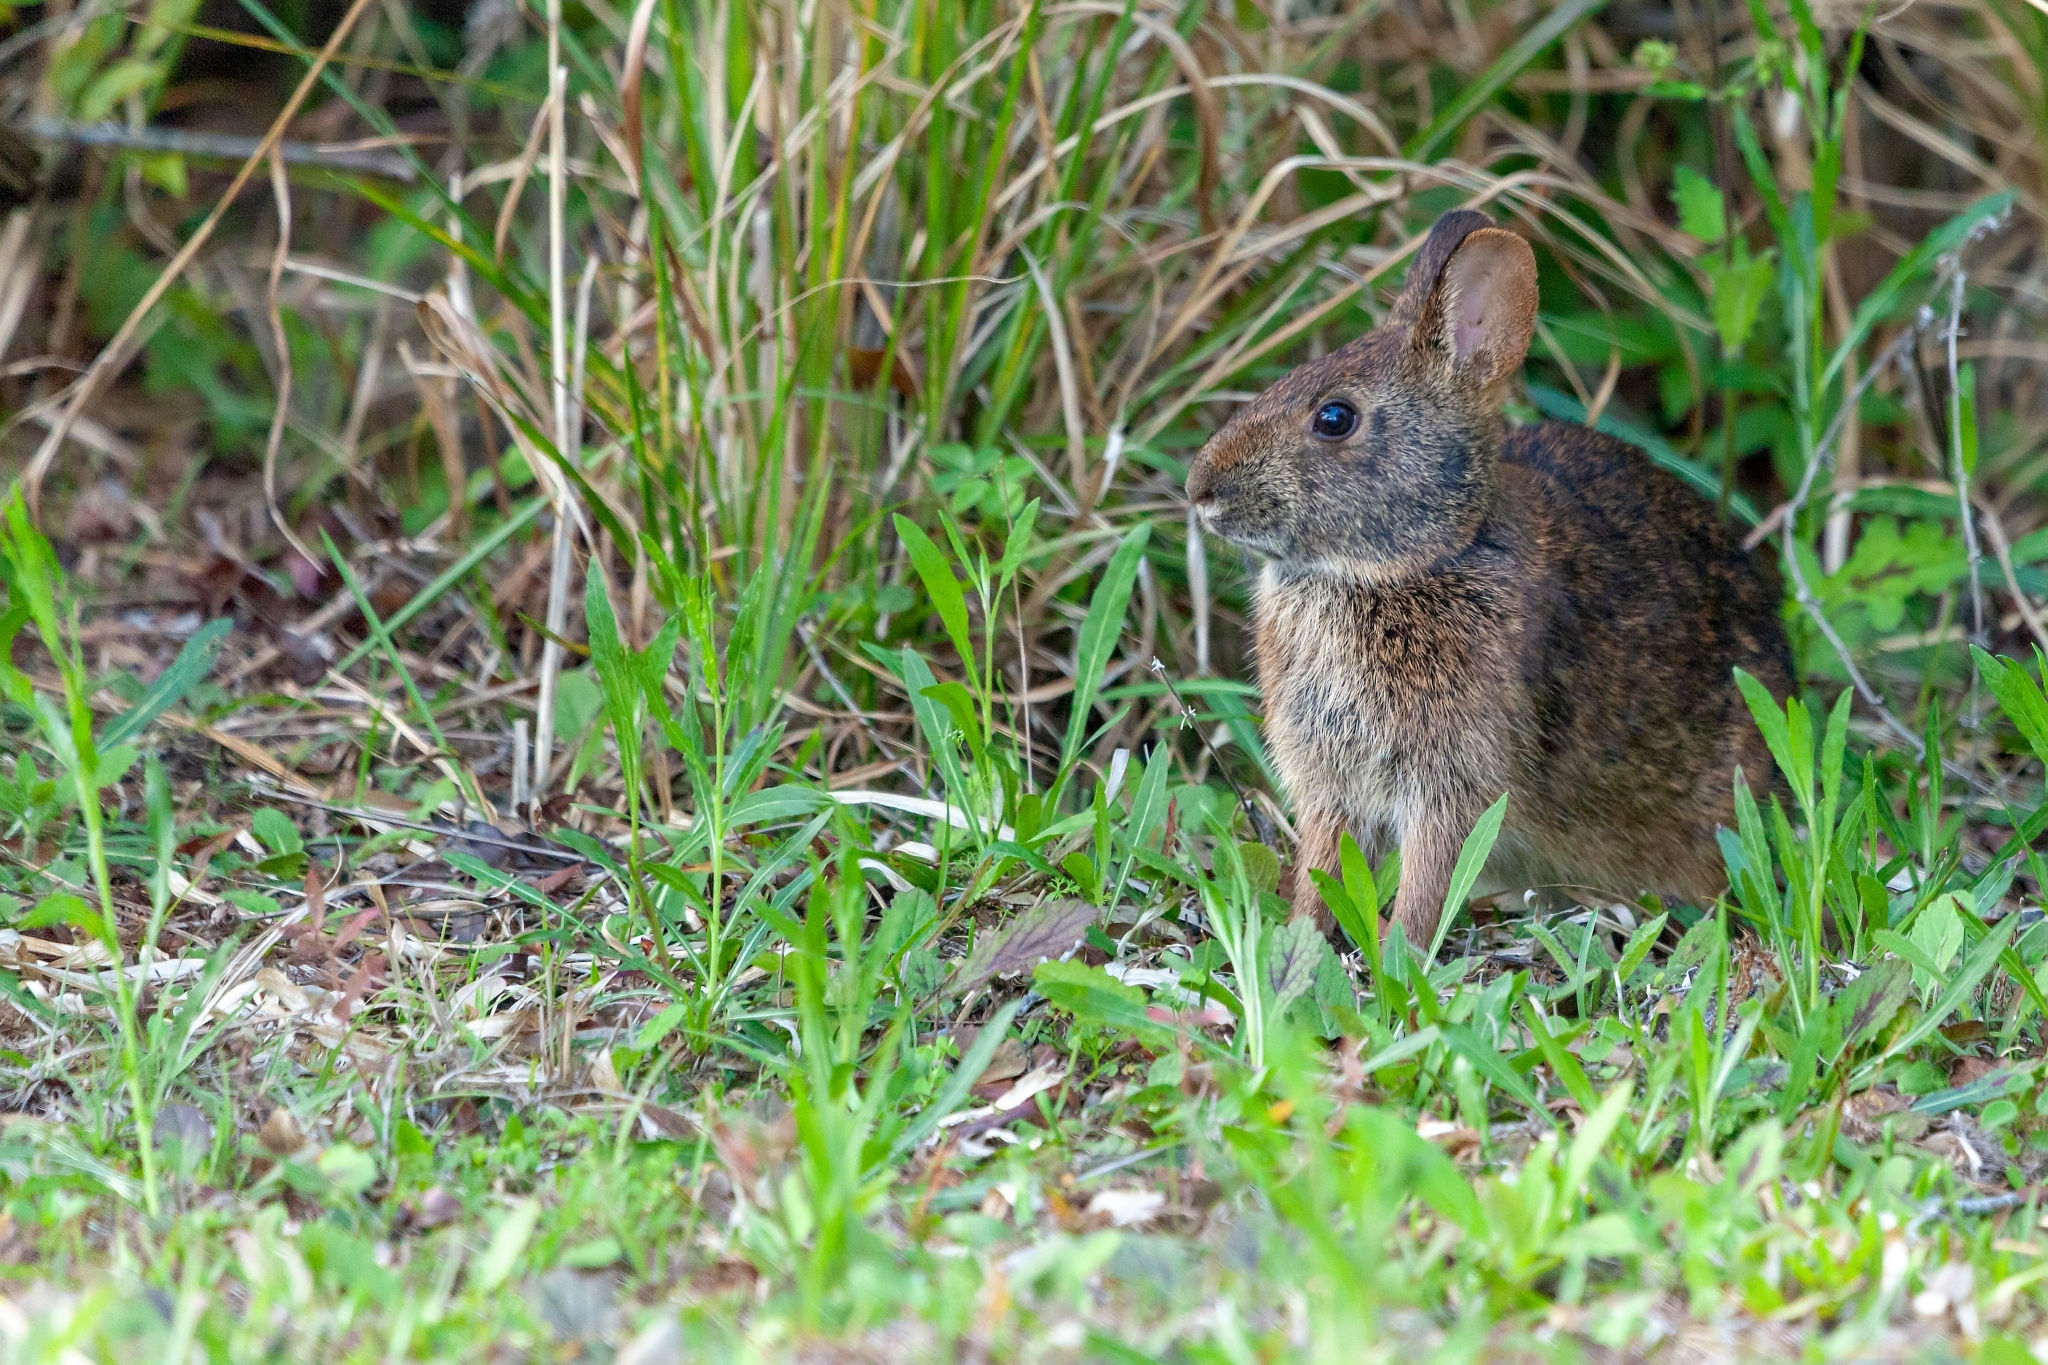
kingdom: Animalia
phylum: Chordata
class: Mammalia
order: Lagomorpha
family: Leporidae
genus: Sylvilagus
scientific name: Sylvilagus palustris
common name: Marsh rabbit
